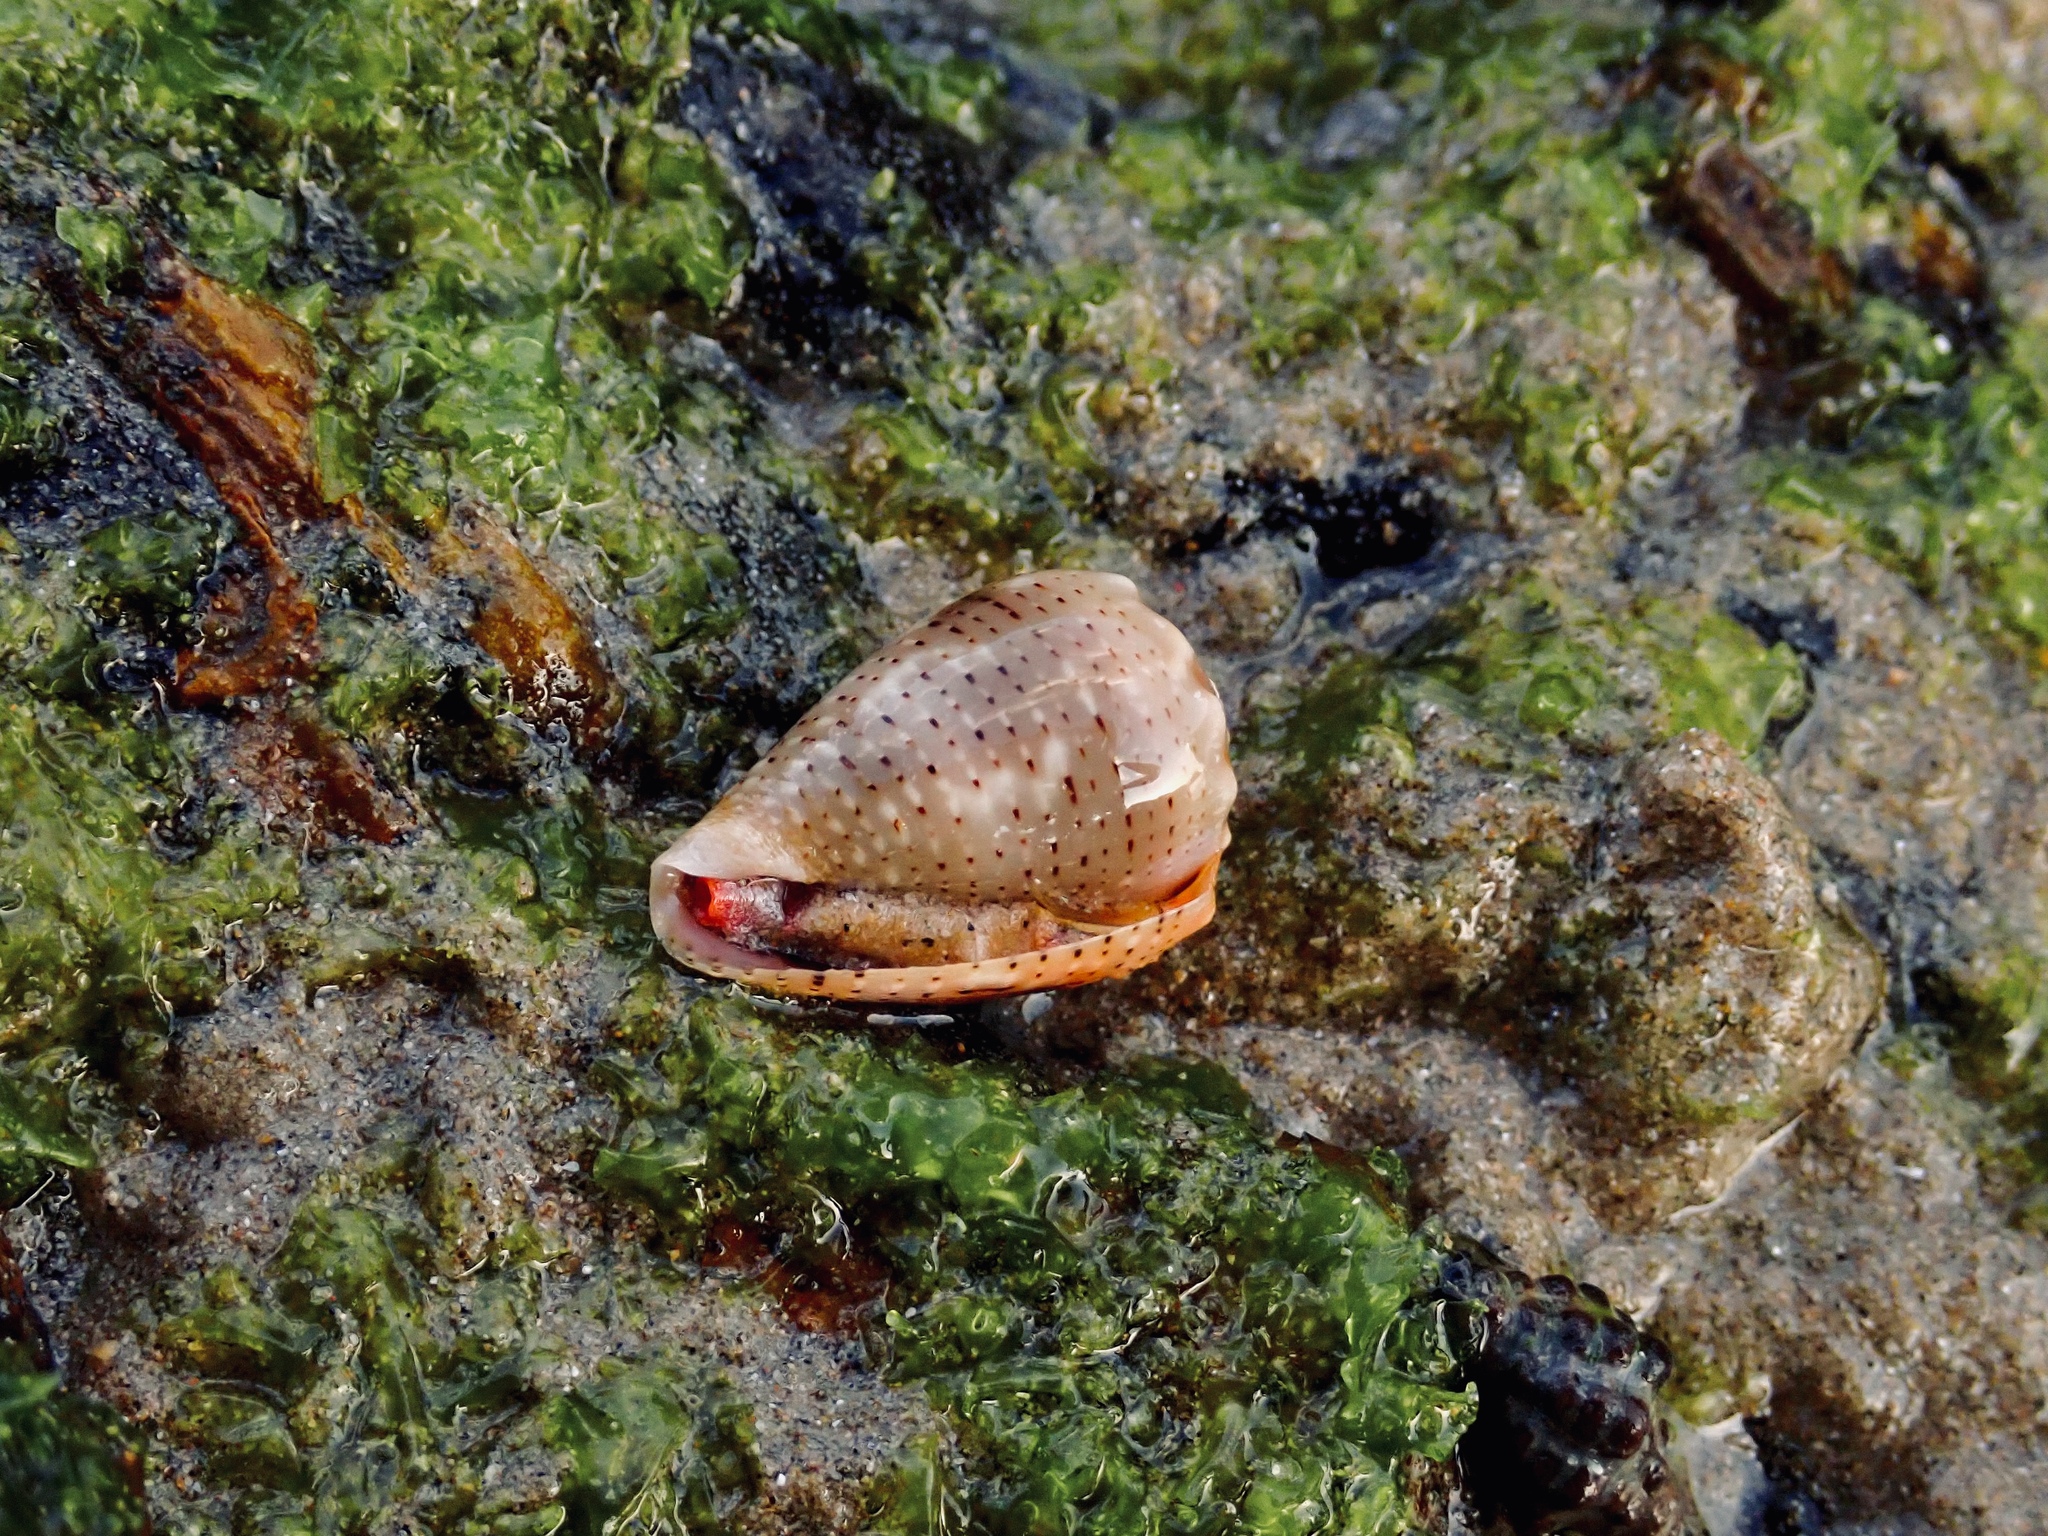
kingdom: Animalia
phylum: Mollusca
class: Gastropoda
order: Neogastropoda
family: Conidae
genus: Conus
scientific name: Conus coronatus
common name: Coronated cone
